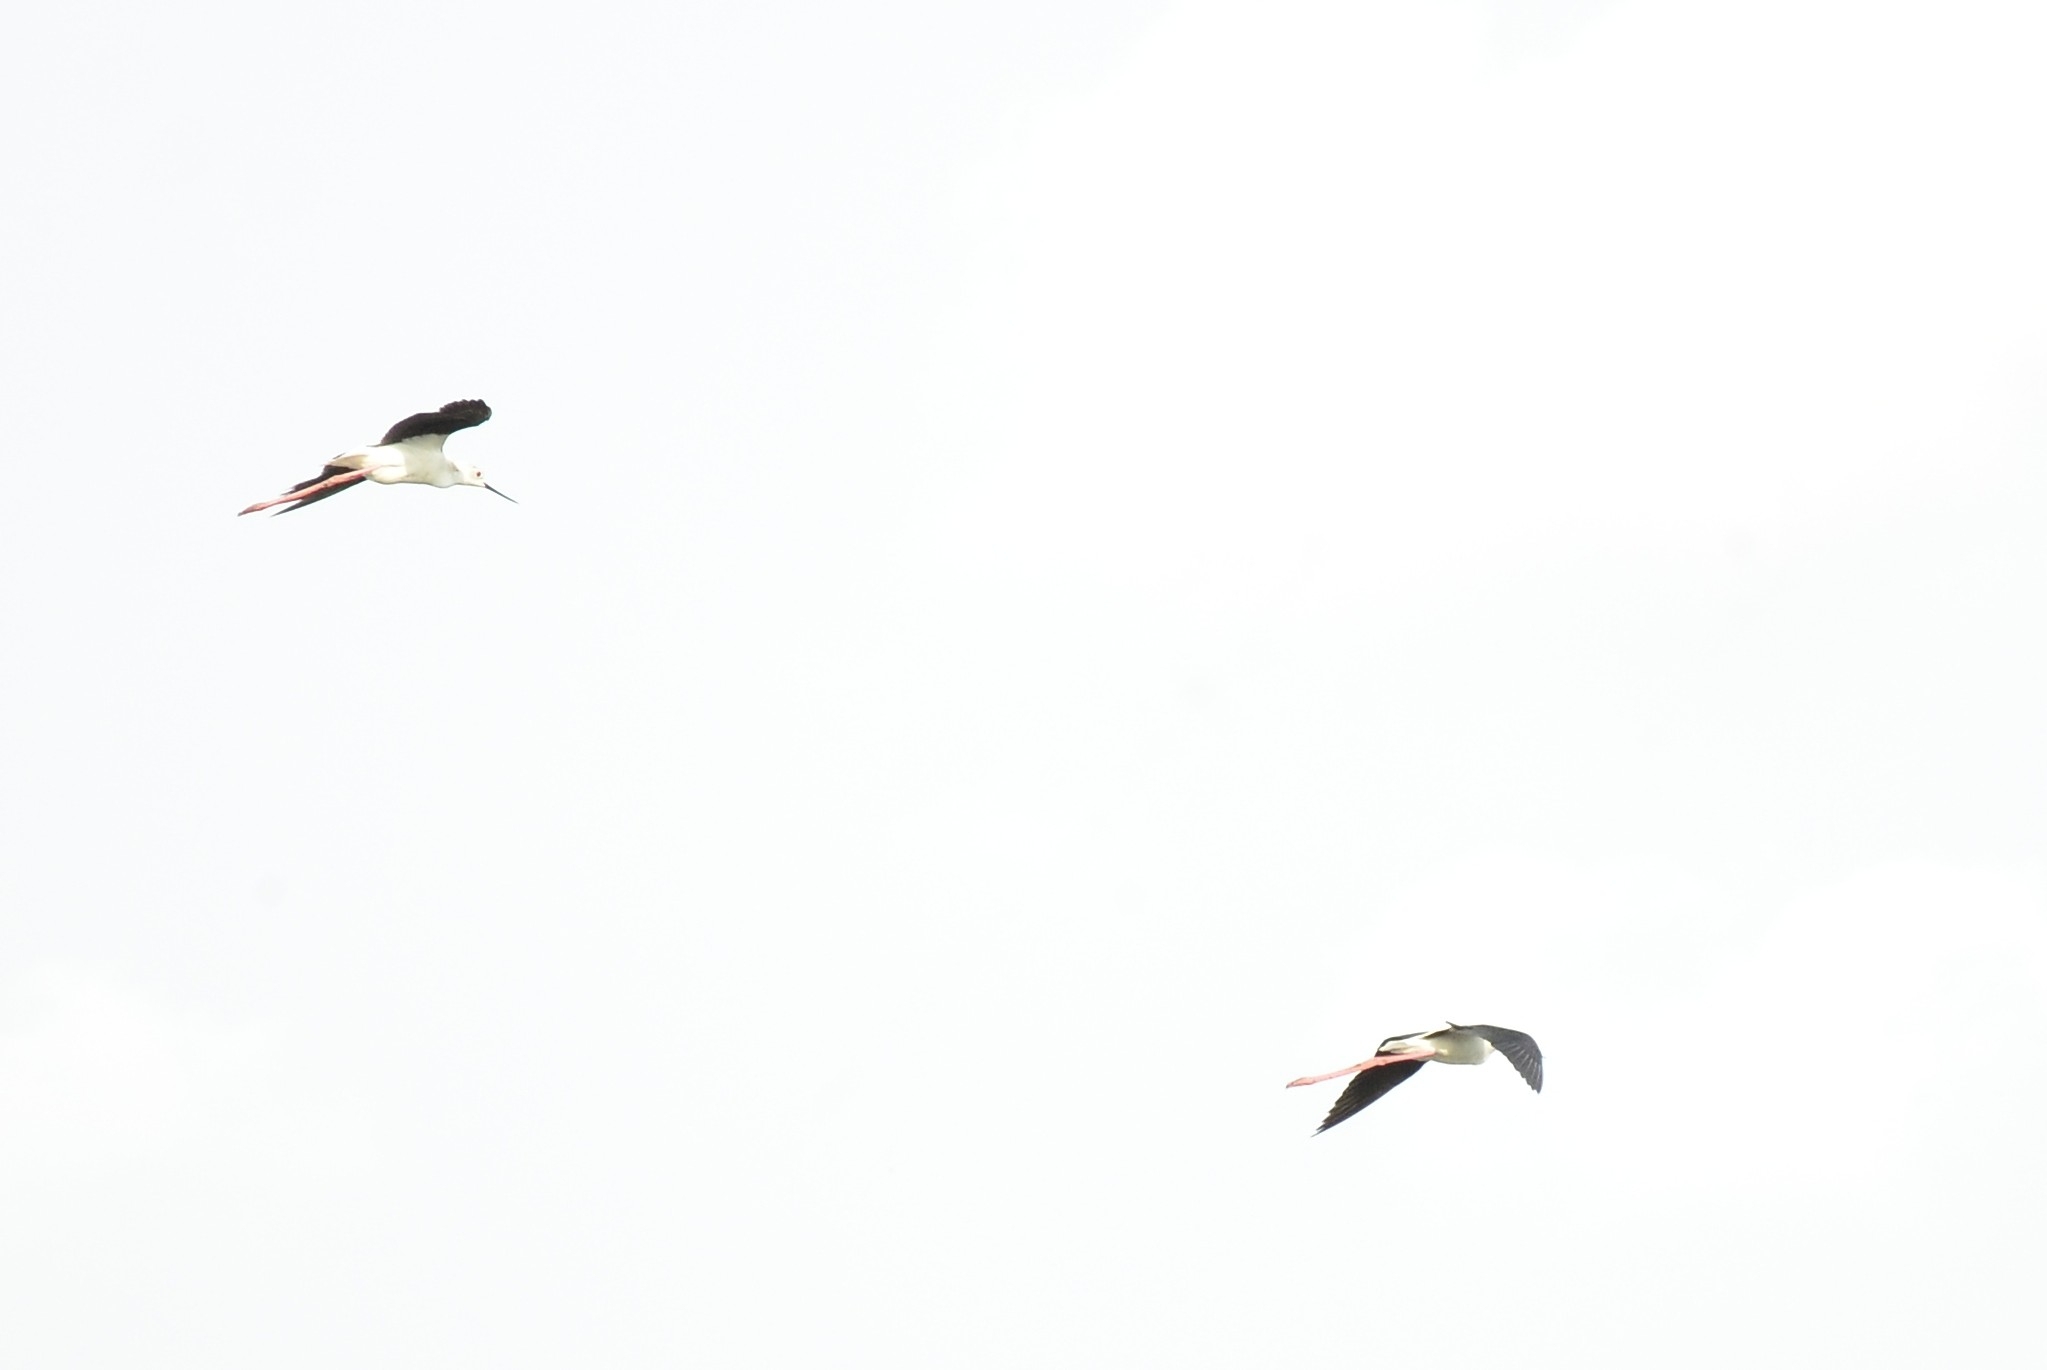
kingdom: Animalia
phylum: Chordata
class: Aves
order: Charadriiformes
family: Recurvirostridae
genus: Himantopus
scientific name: Himantopus himantopus
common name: Black-winged stilt
